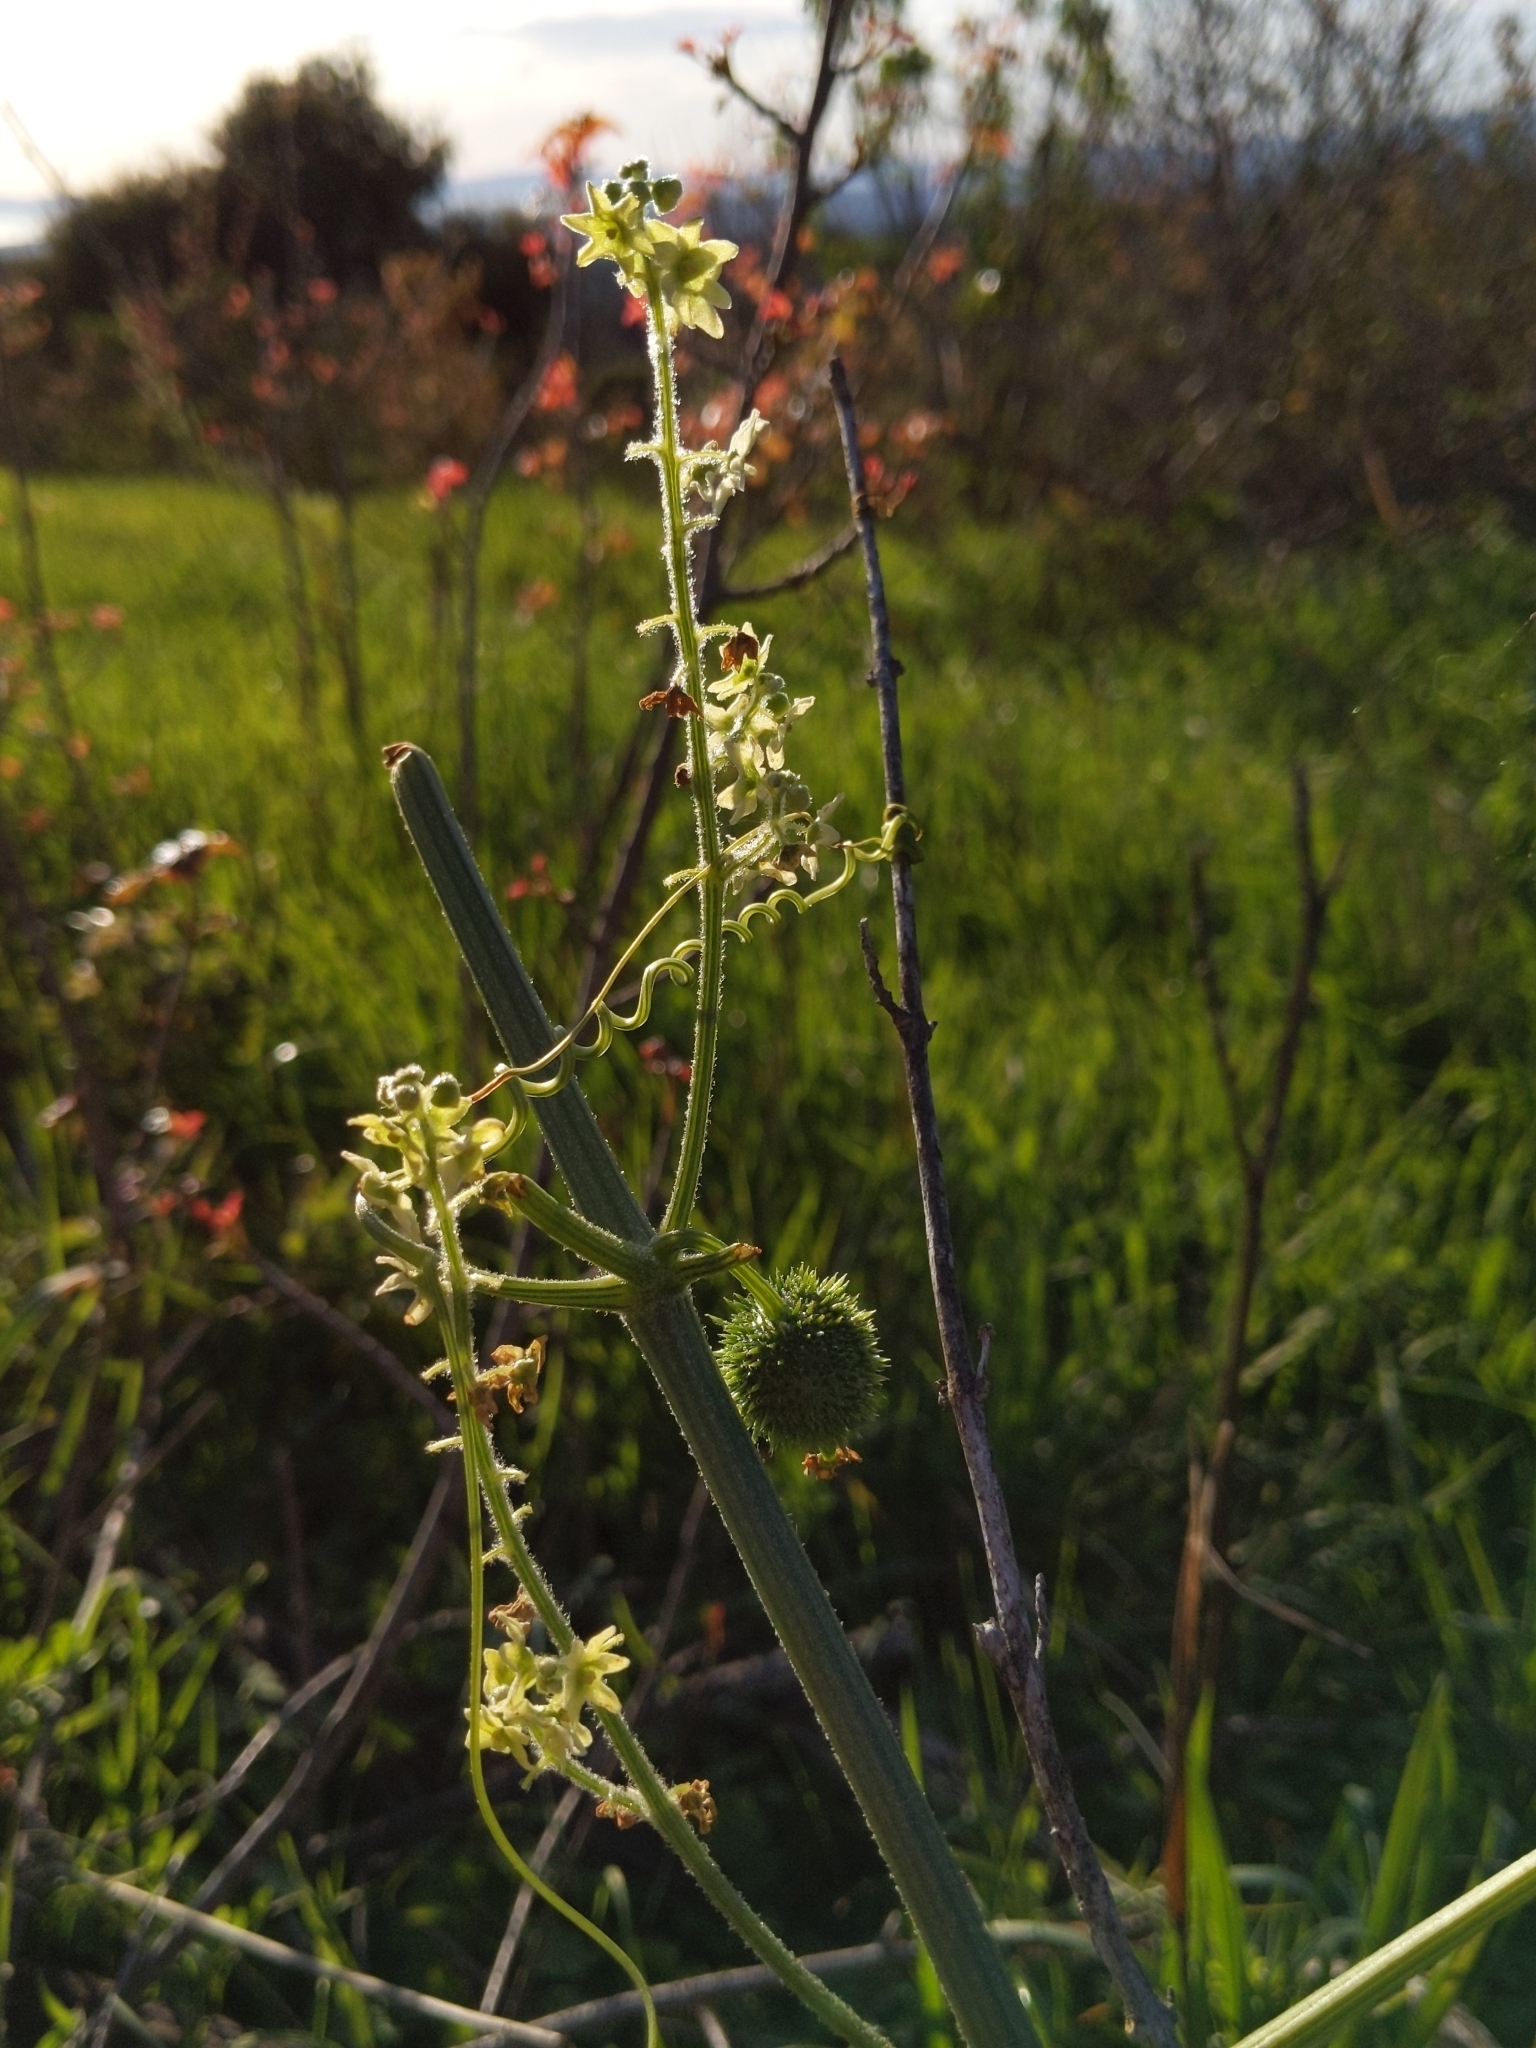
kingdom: Plantae
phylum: Tracheophyta
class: Magnoliopsida
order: Cucurbitales
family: Cucurbitaceae
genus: Marah
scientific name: Marah fabacea
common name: California manroot
